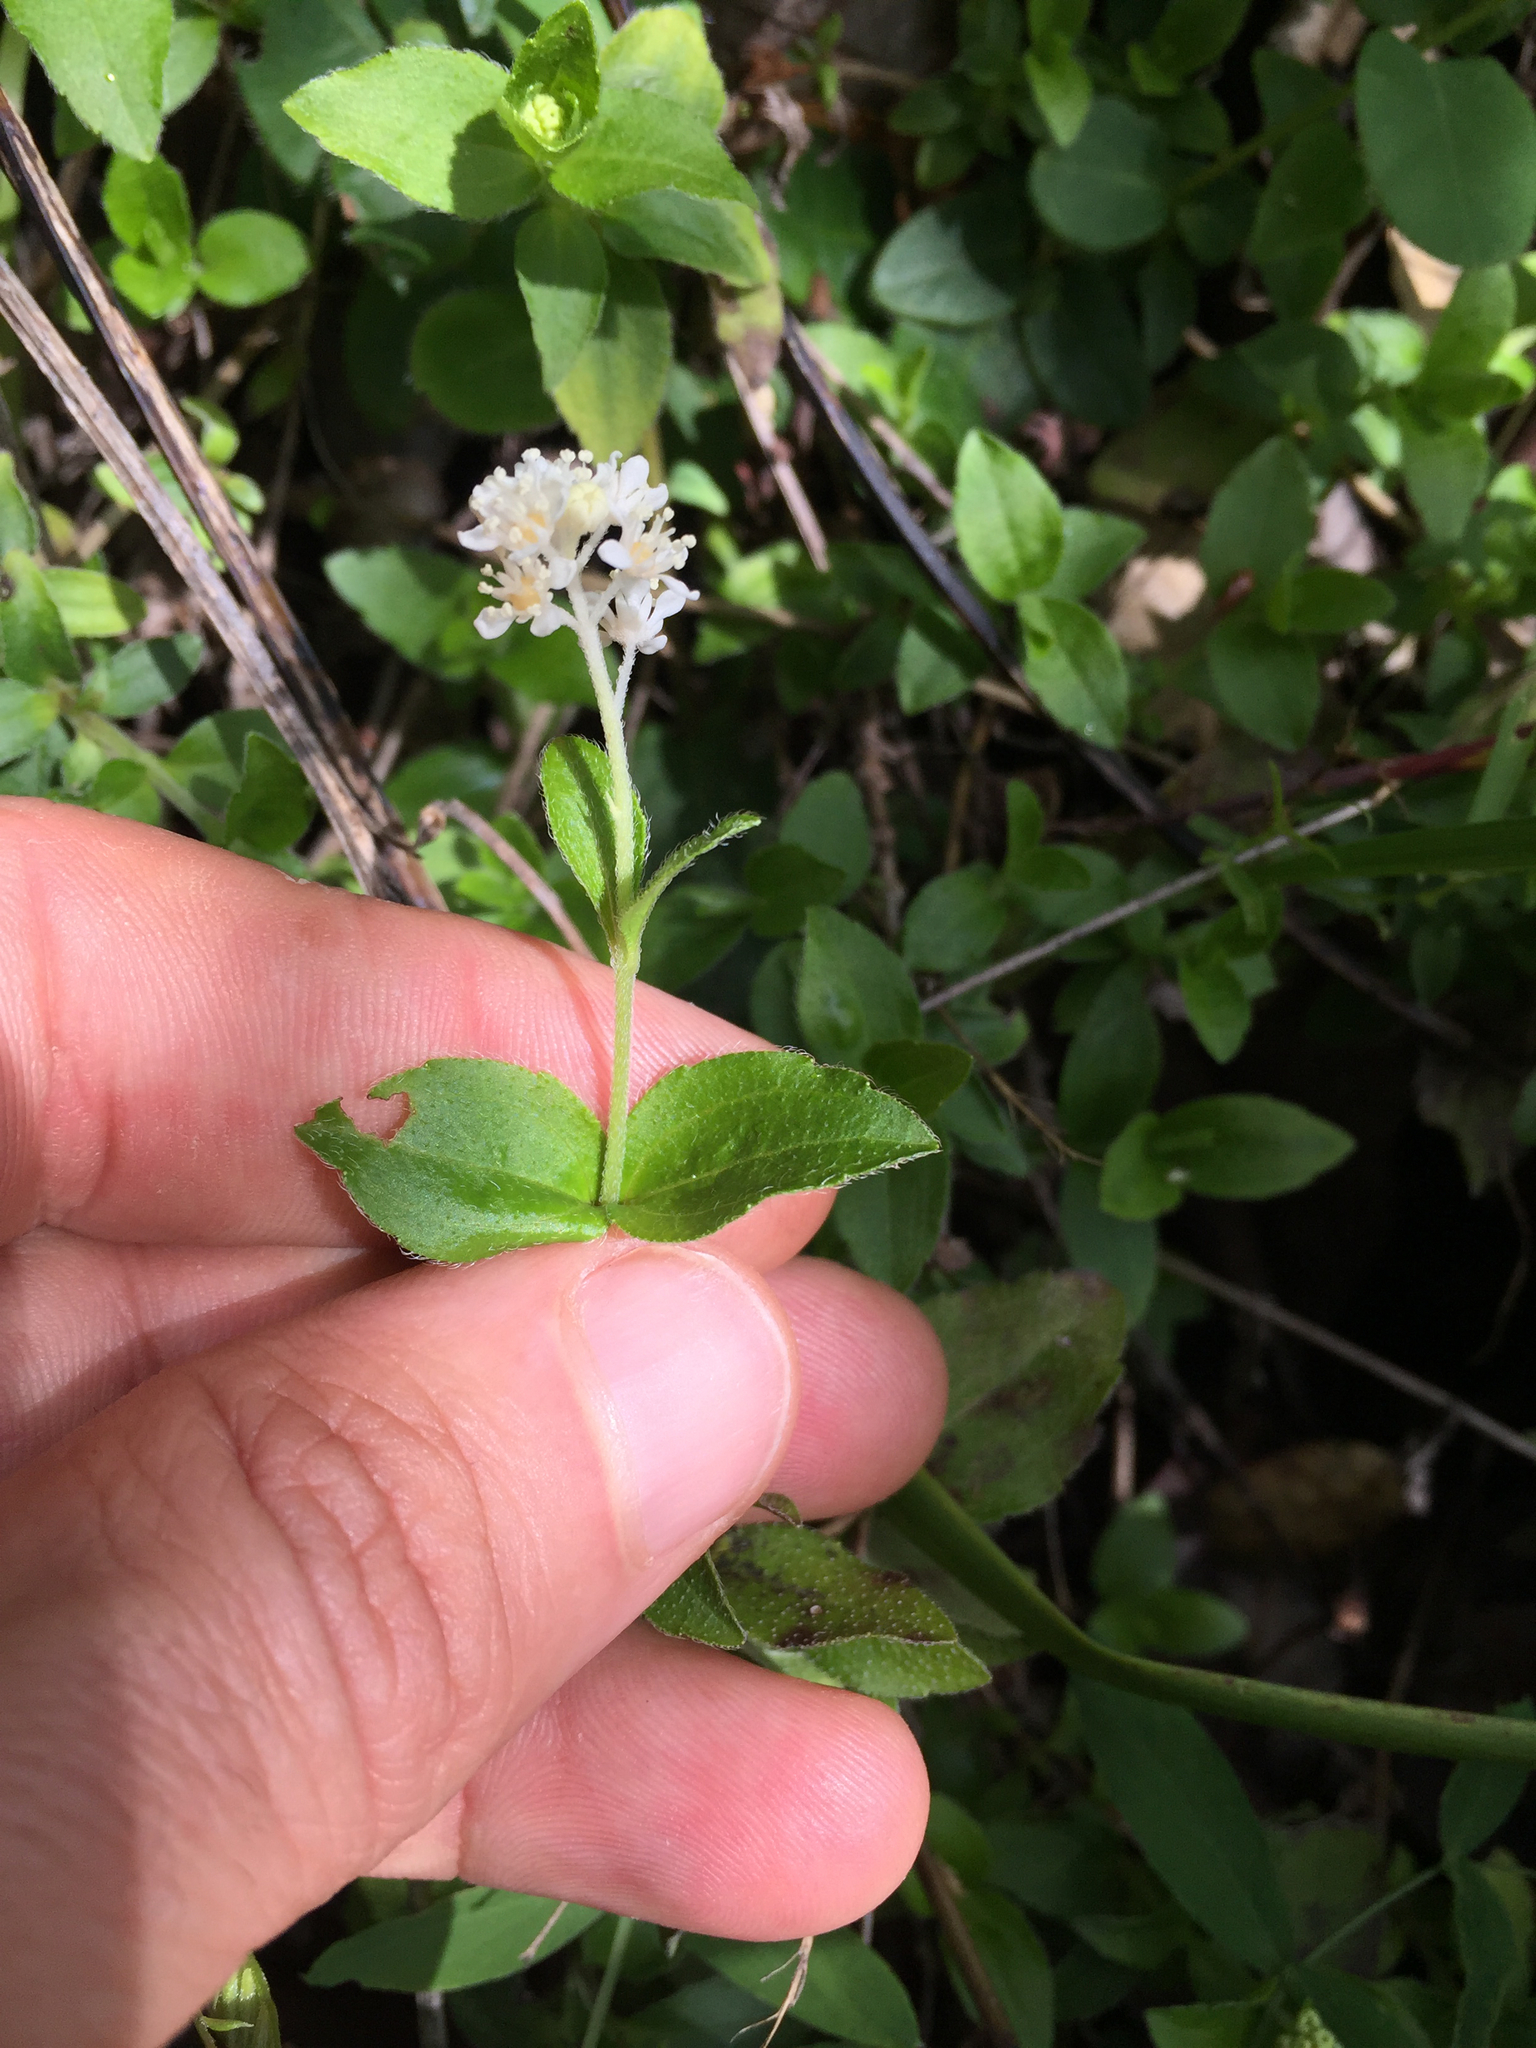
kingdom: Plantae
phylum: Tracheophyta
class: Magnoliopsida
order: Cornales
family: Hydrangeaceae
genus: Whipplea
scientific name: Whipplea modesta
